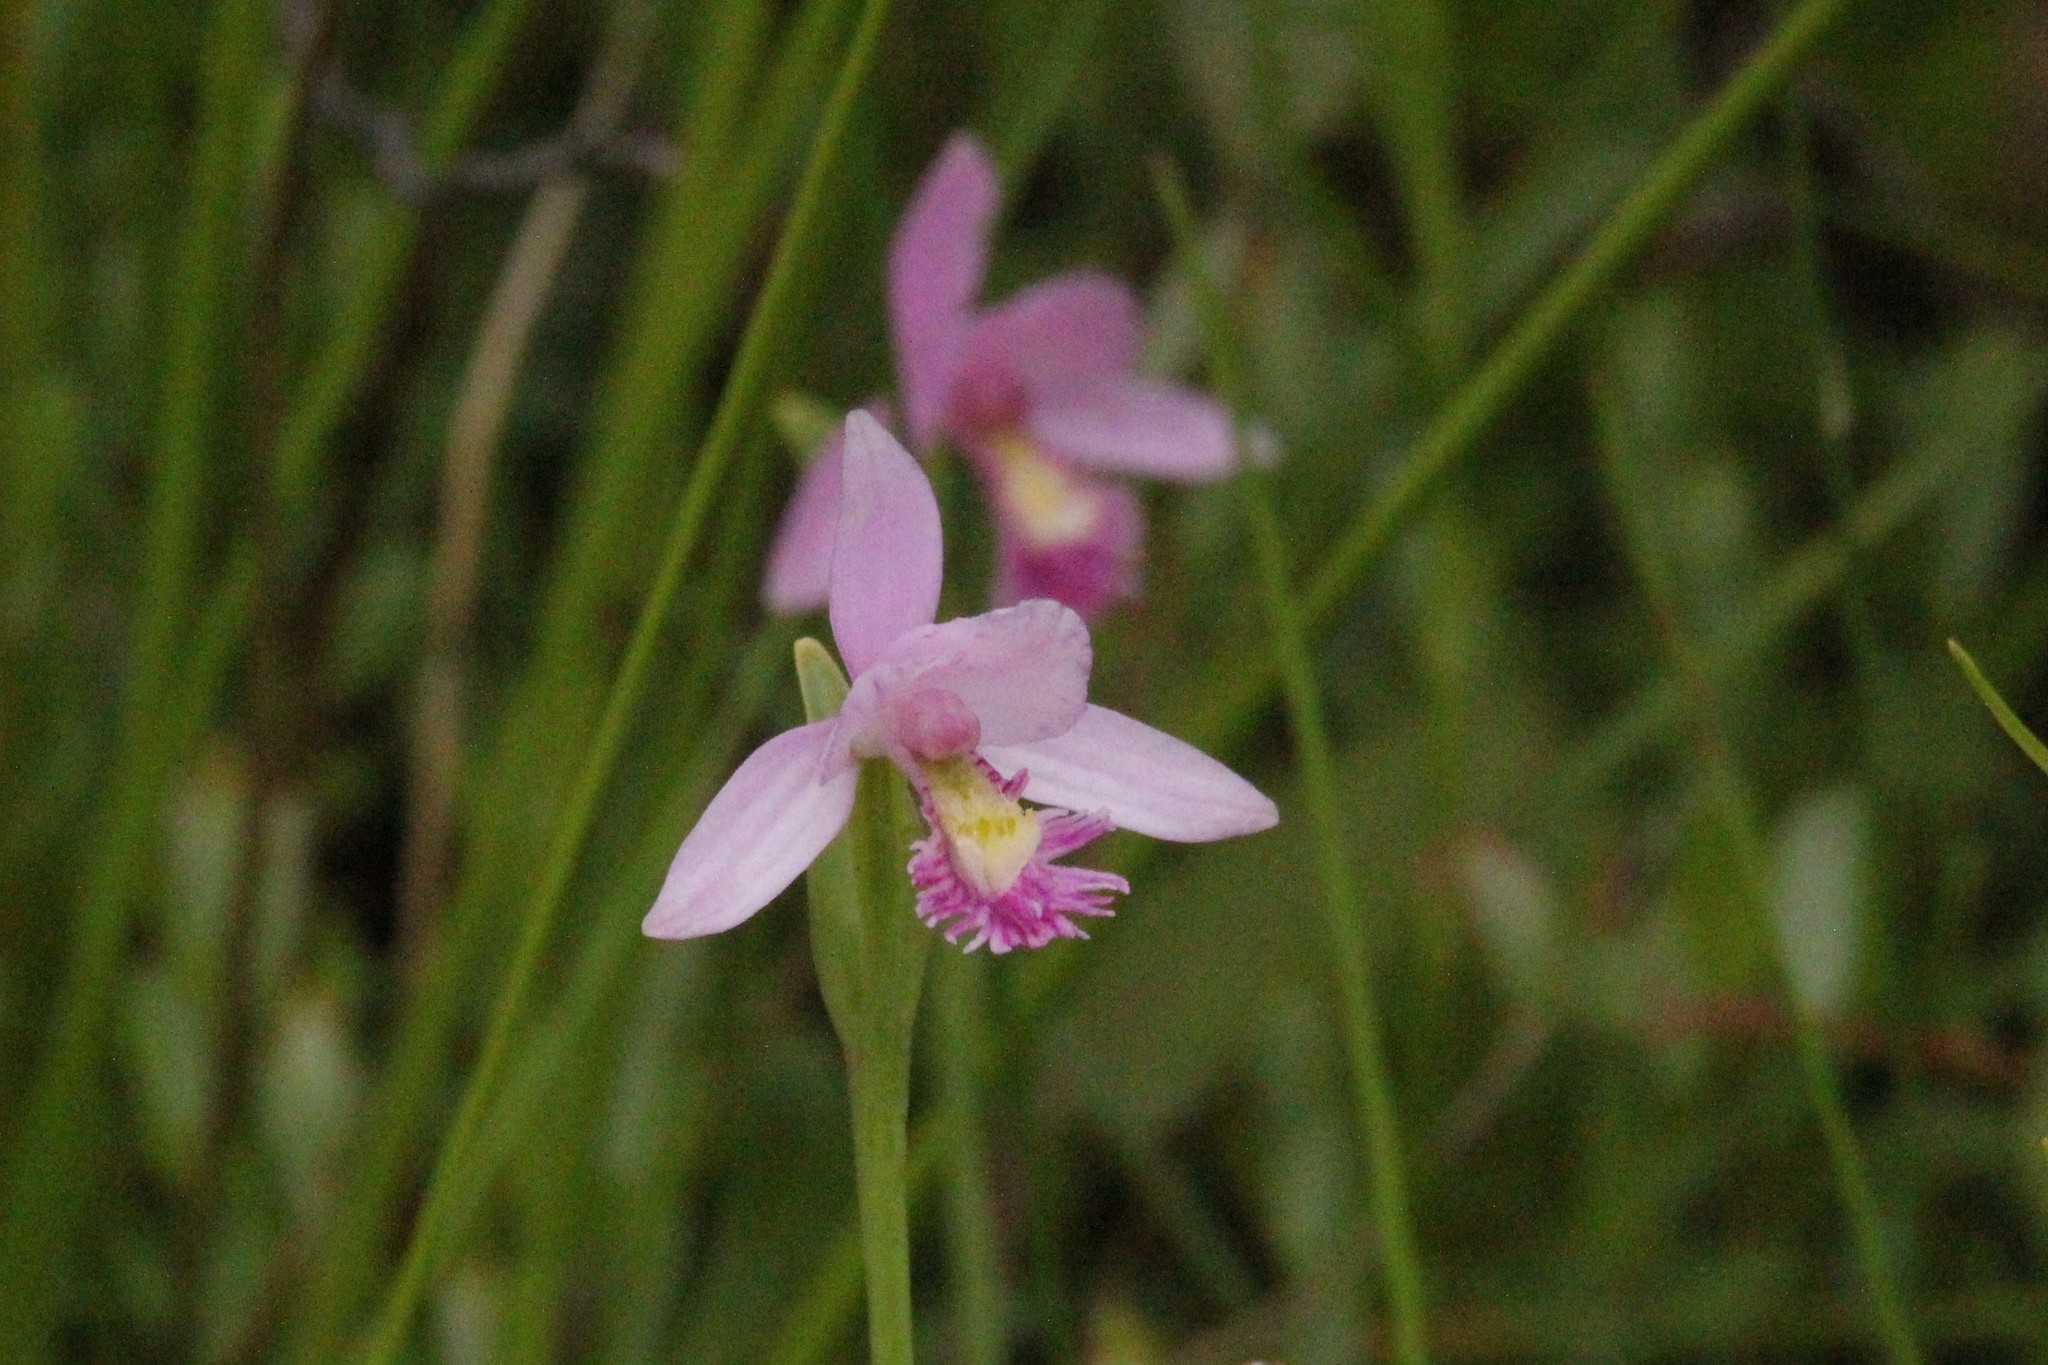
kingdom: Plantae
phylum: Tracheophyta
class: Liliopsida
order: Asparagales
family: Orchidaceae
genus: Pogonia
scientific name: Pogonia ophioglossoides
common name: Rose pogonia
